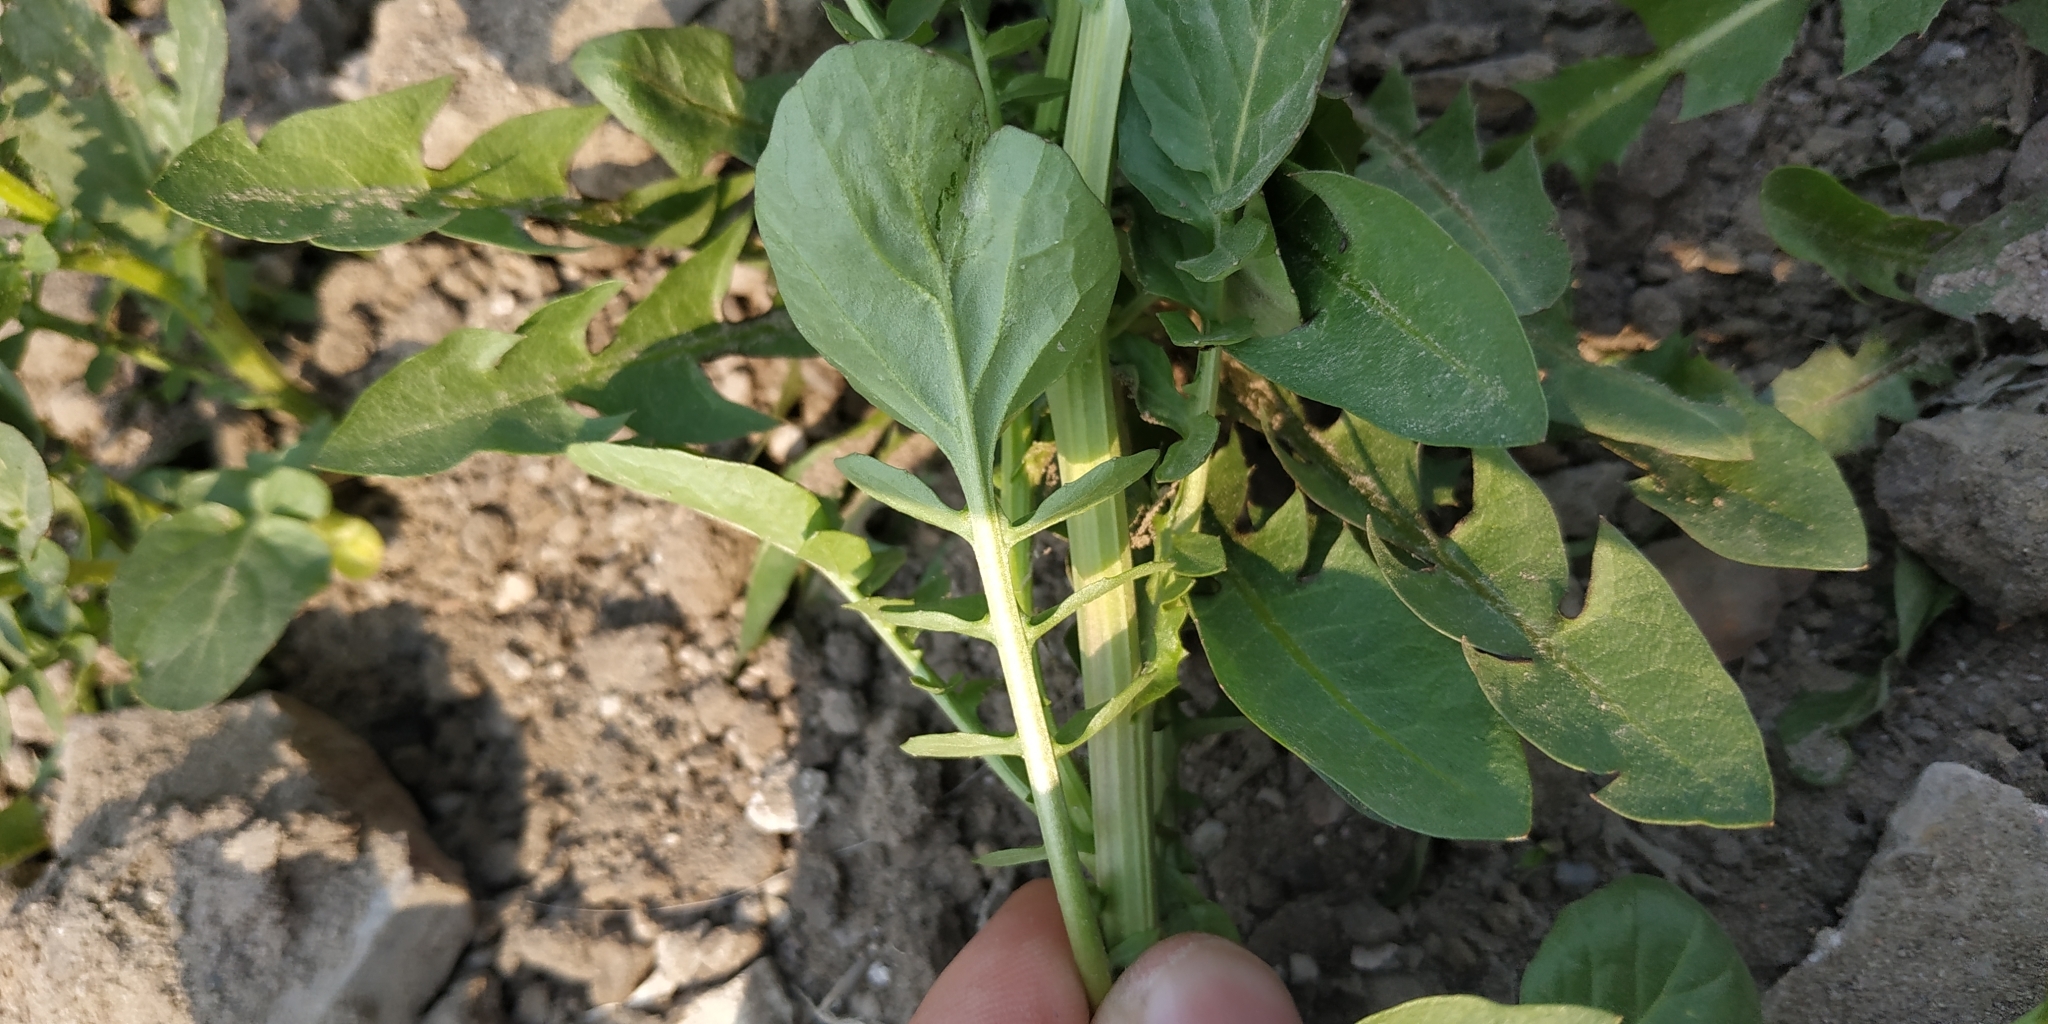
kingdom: Plantae
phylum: Tracheophyta
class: Magnoliopsida
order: Brassicales
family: Brassicaceae
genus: Barbarea
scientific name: Barbarea vulgaris
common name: Cressy-greens
